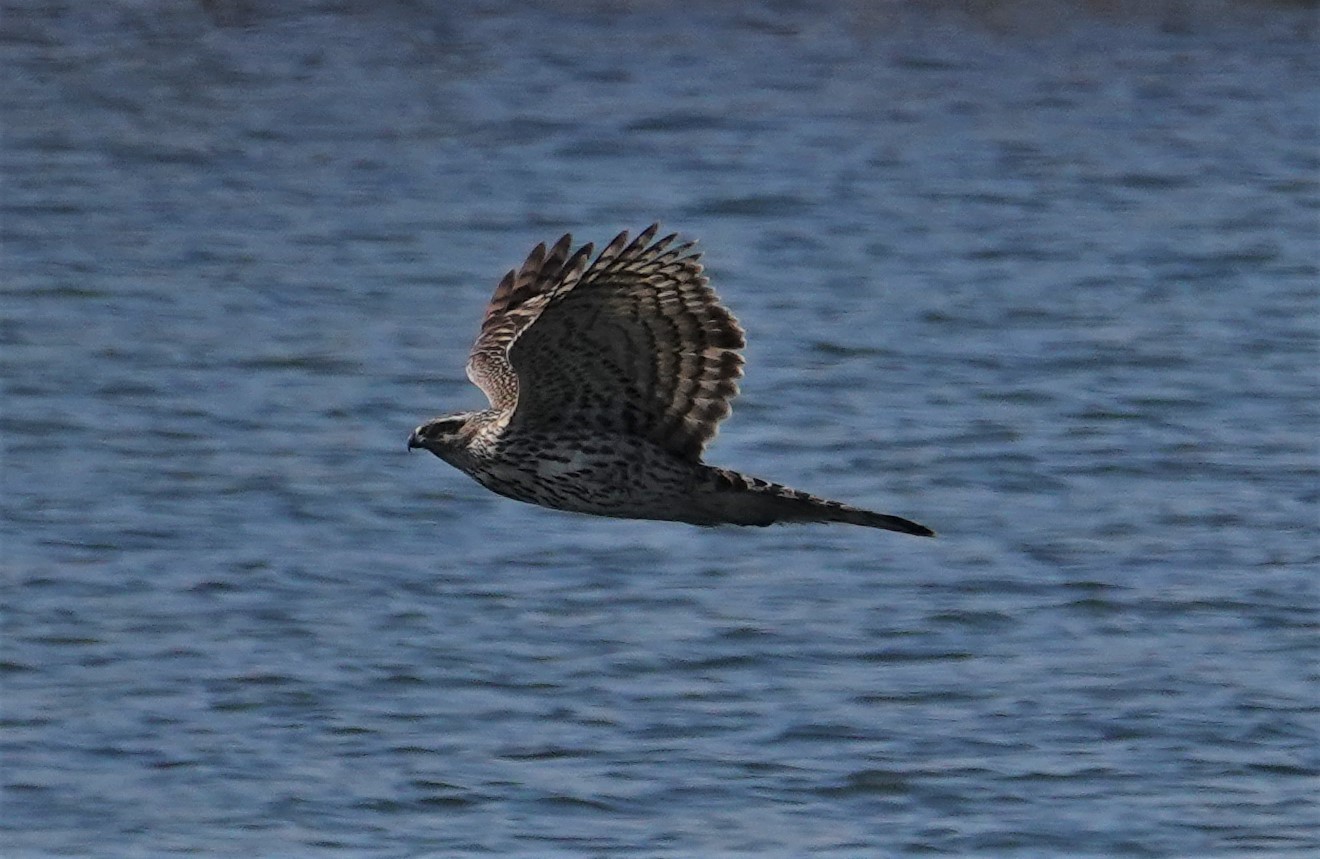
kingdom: Animalia
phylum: Chordata
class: Aves
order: Accipitriformes
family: Accipitridae
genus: Accipiter
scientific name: Accipiter gentilis
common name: Northern goshawk
